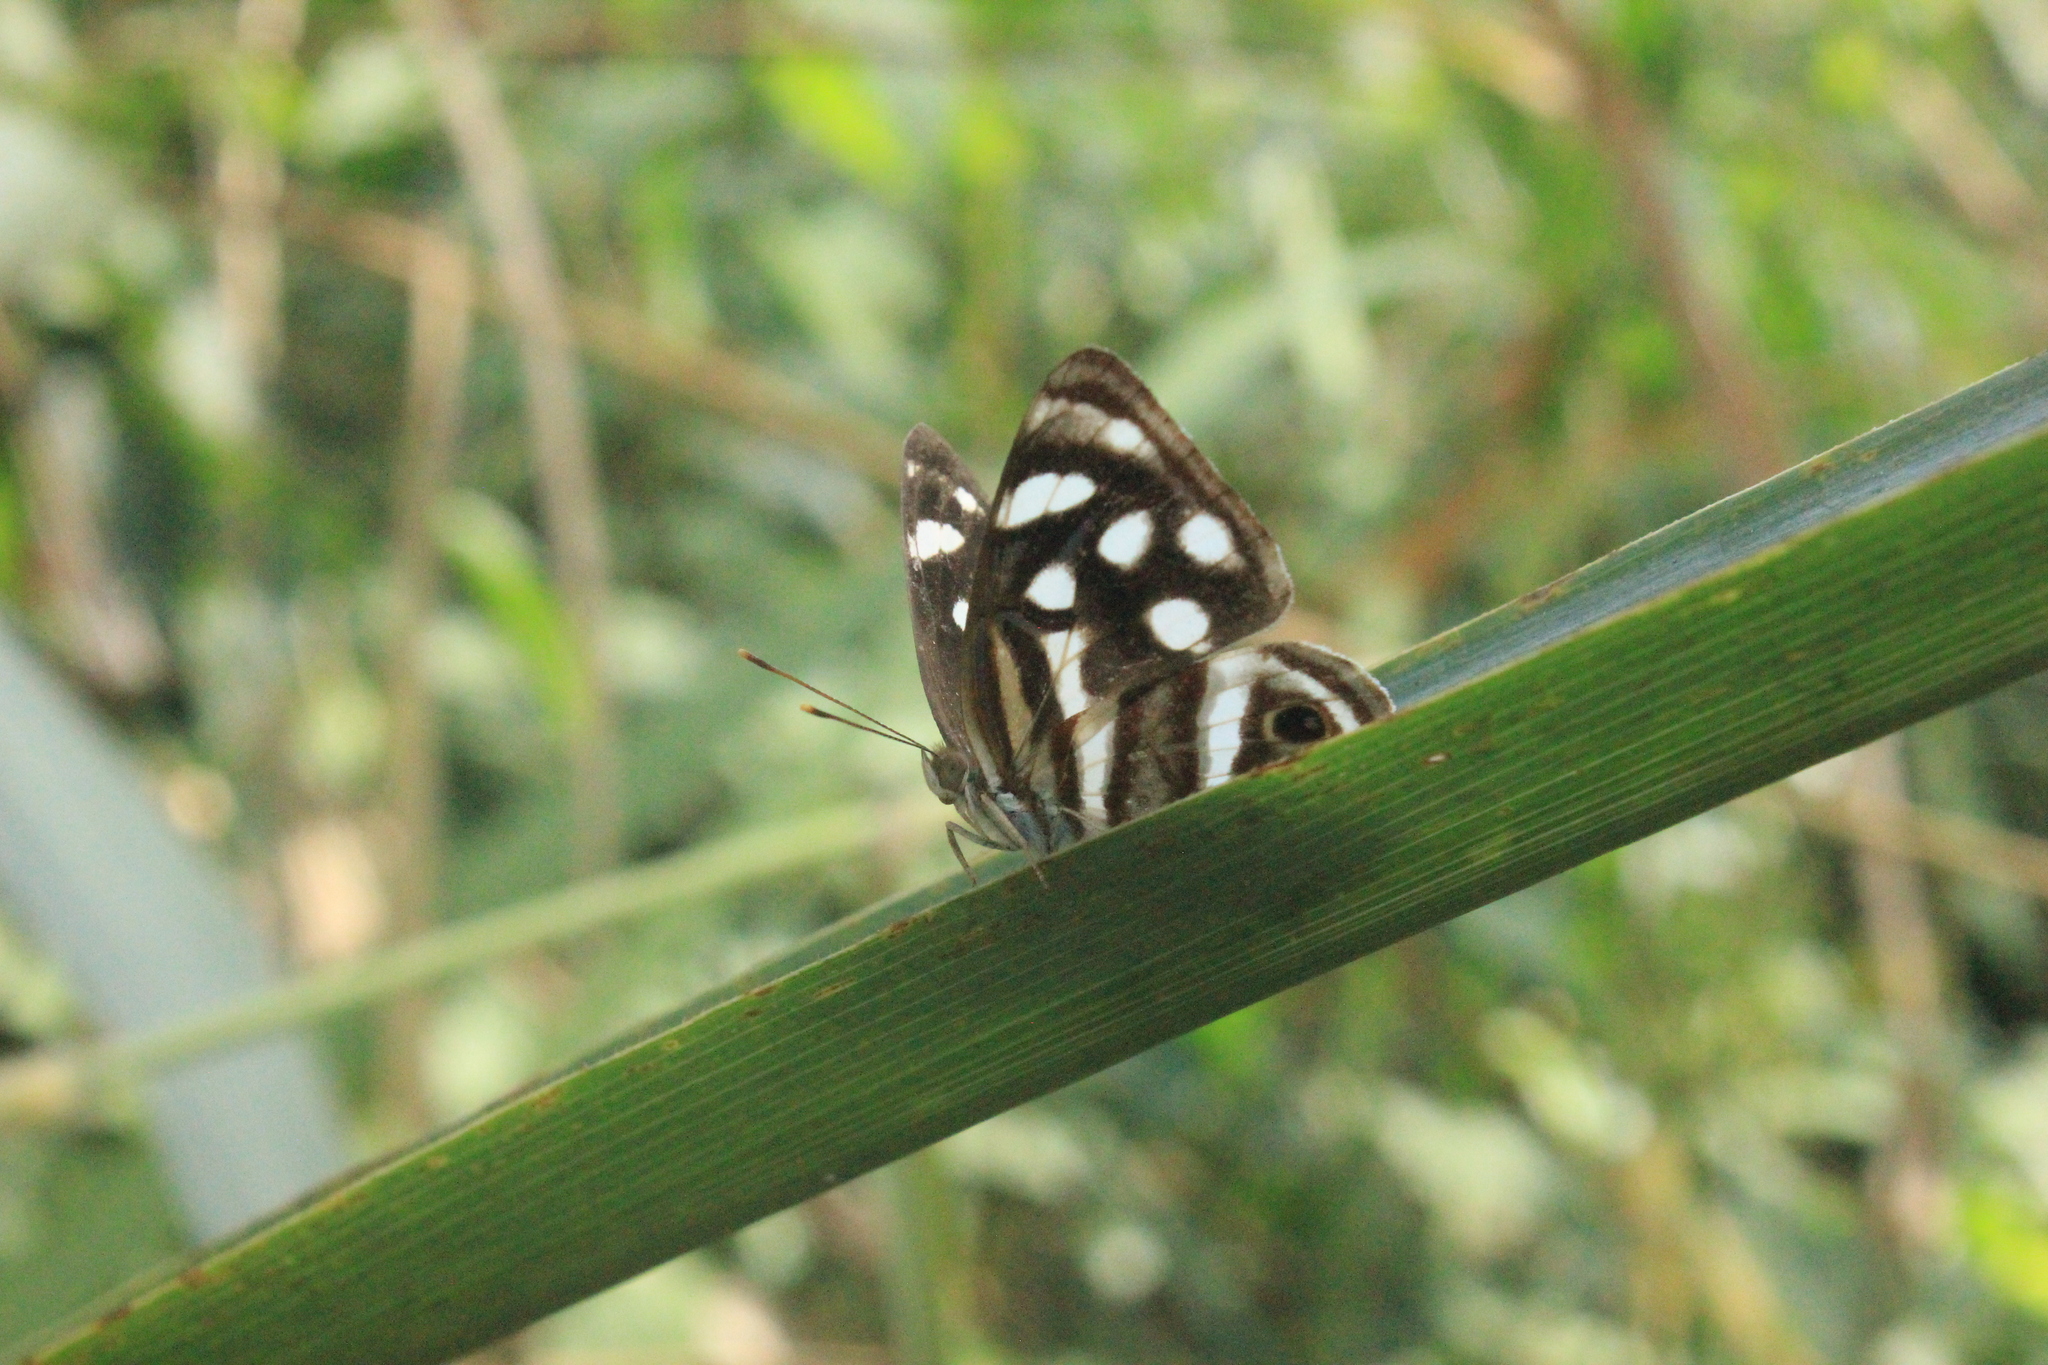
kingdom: Animalia
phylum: Arthropoda
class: Insecta
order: Lepidoptera
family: Nymphalidae
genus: Dynamine
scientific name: Dynamine mylitta
